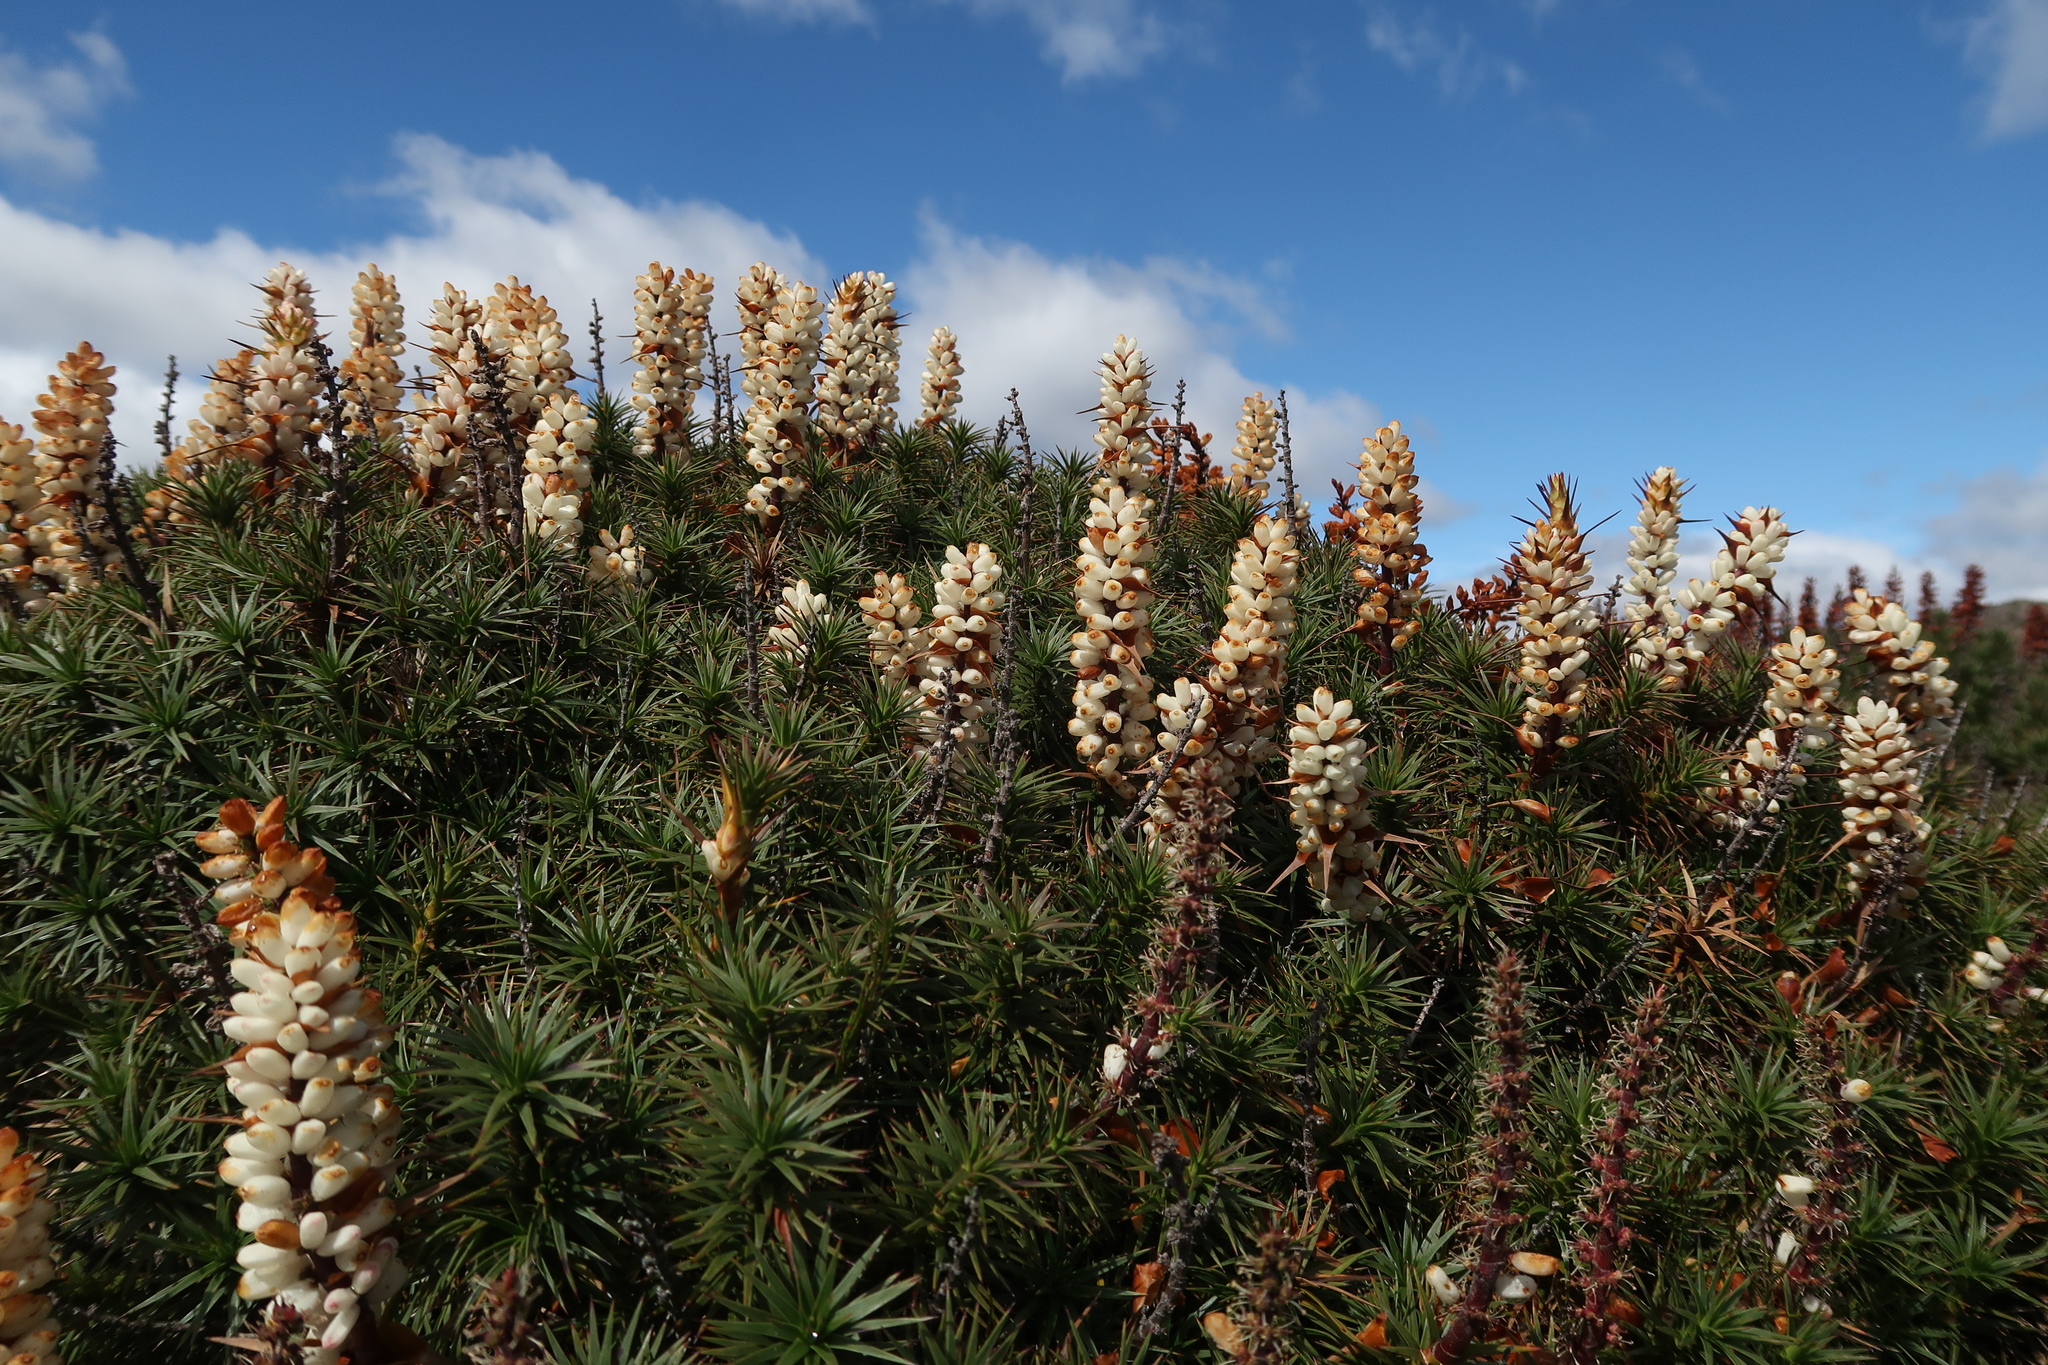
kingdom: Plantae
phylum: Tracheophyta
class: Magnoliopsida
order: Ericales
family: Ericaceae
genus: Dracophyllum
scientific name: Dracophyllum persistentifolium
